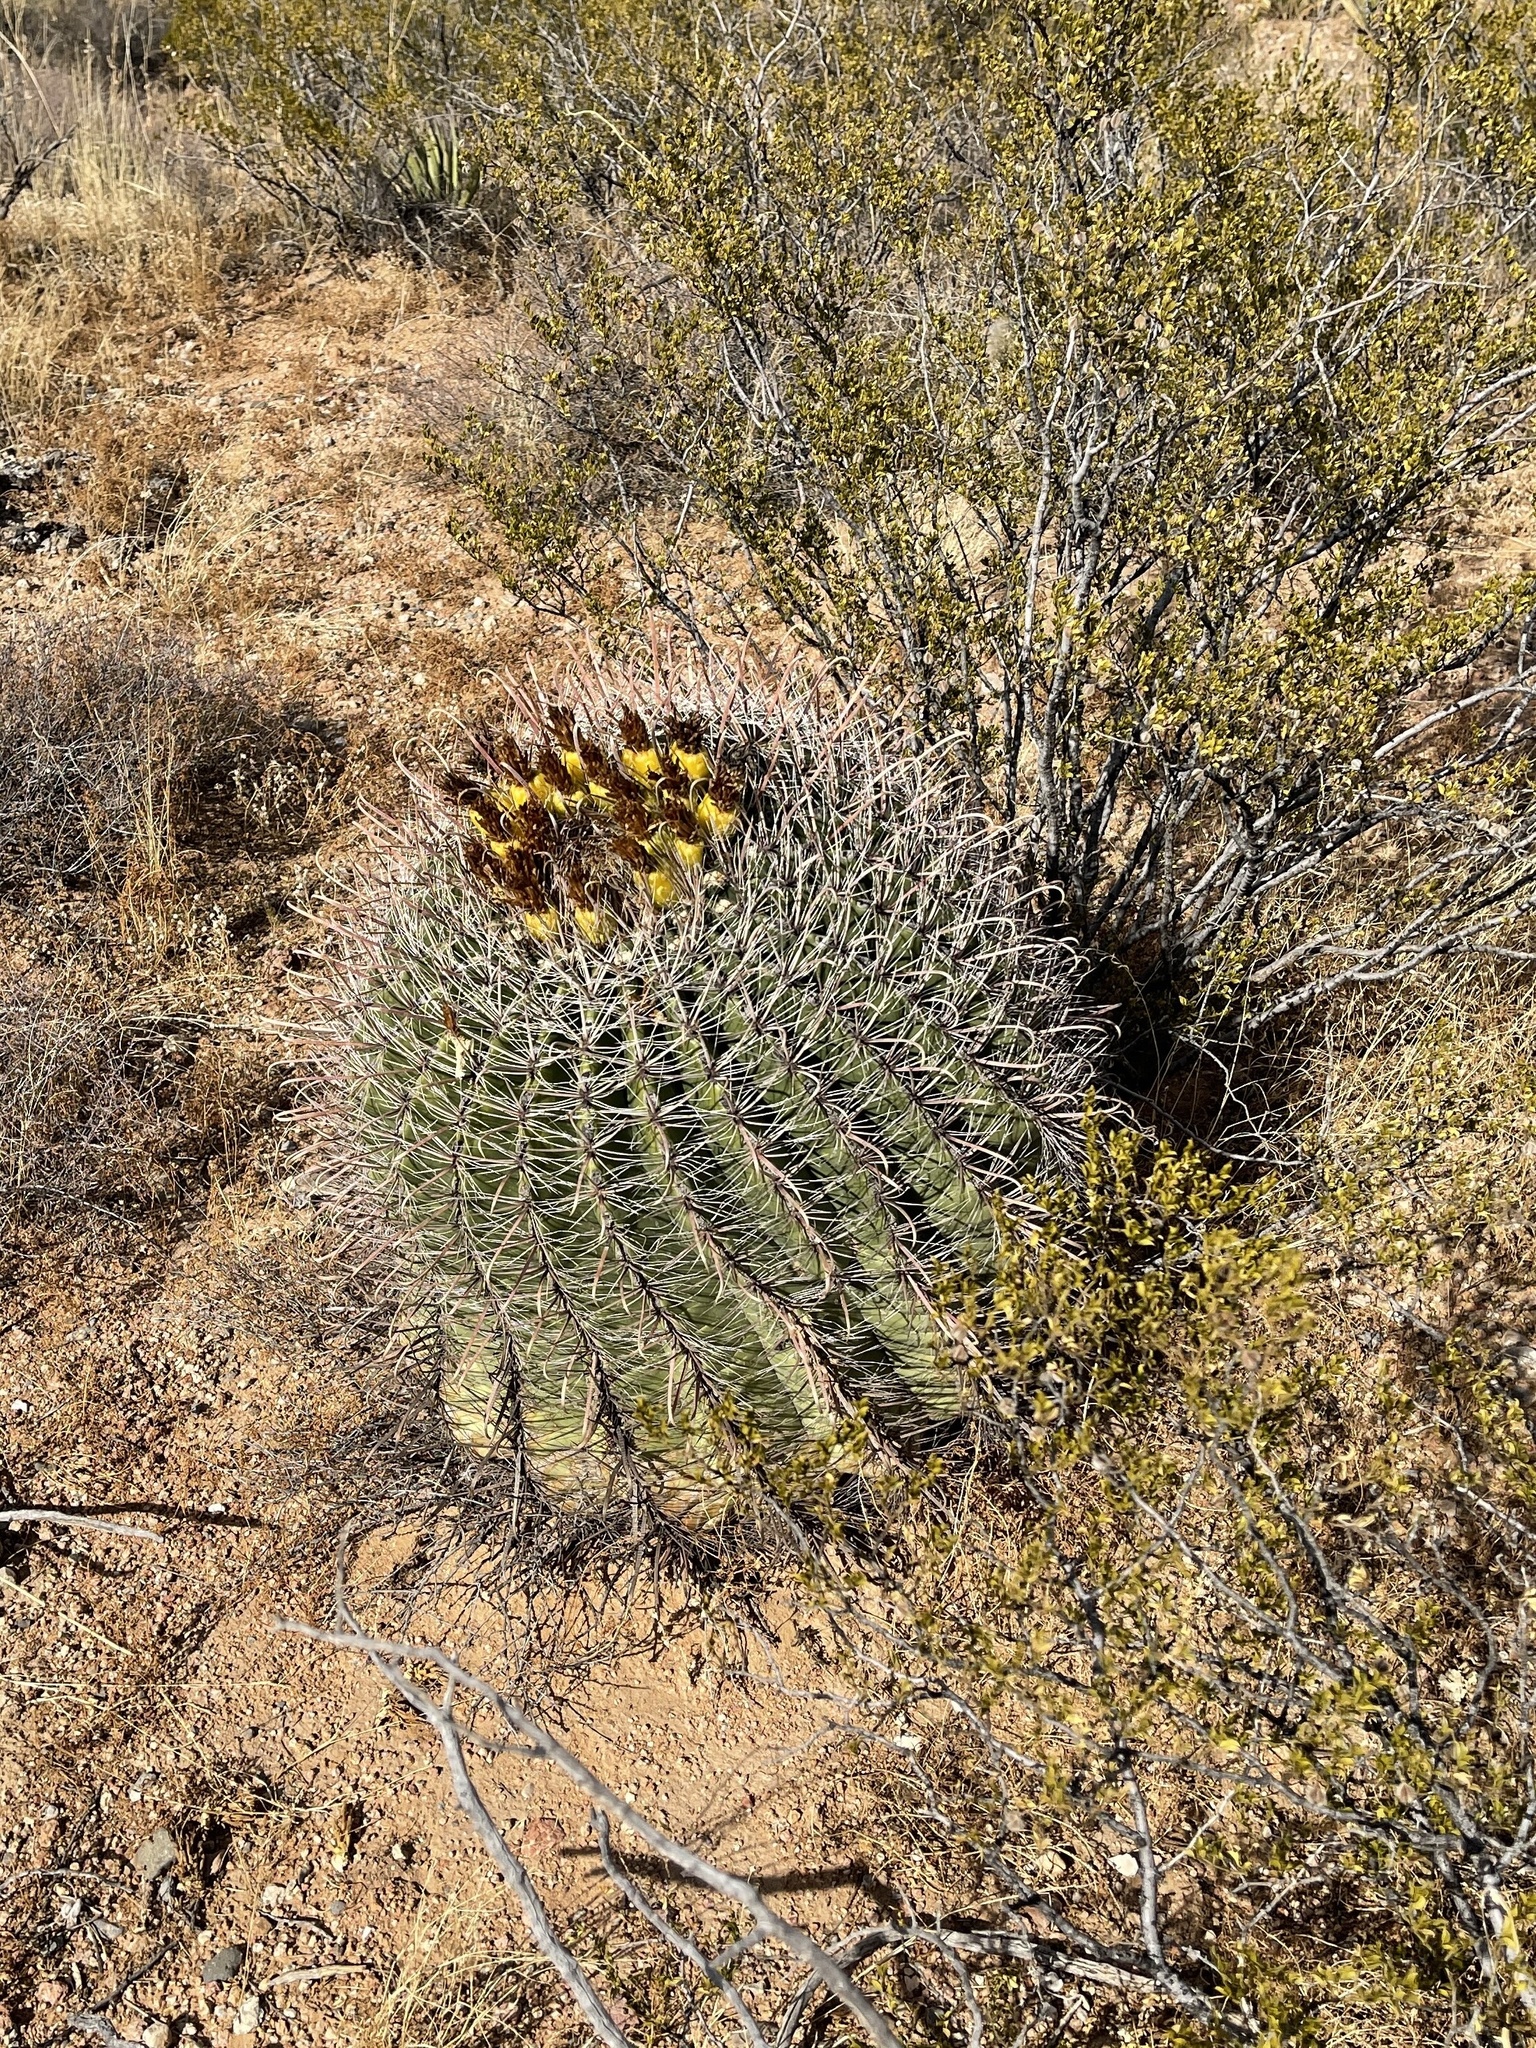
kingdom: Plantae
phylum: Tracheophyta
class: Magnoliopsida
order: Caryophyllales
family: Cactaceae
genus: Ferocactus
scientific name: Ferocactus wislizeni
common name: Candy barrel cactus
